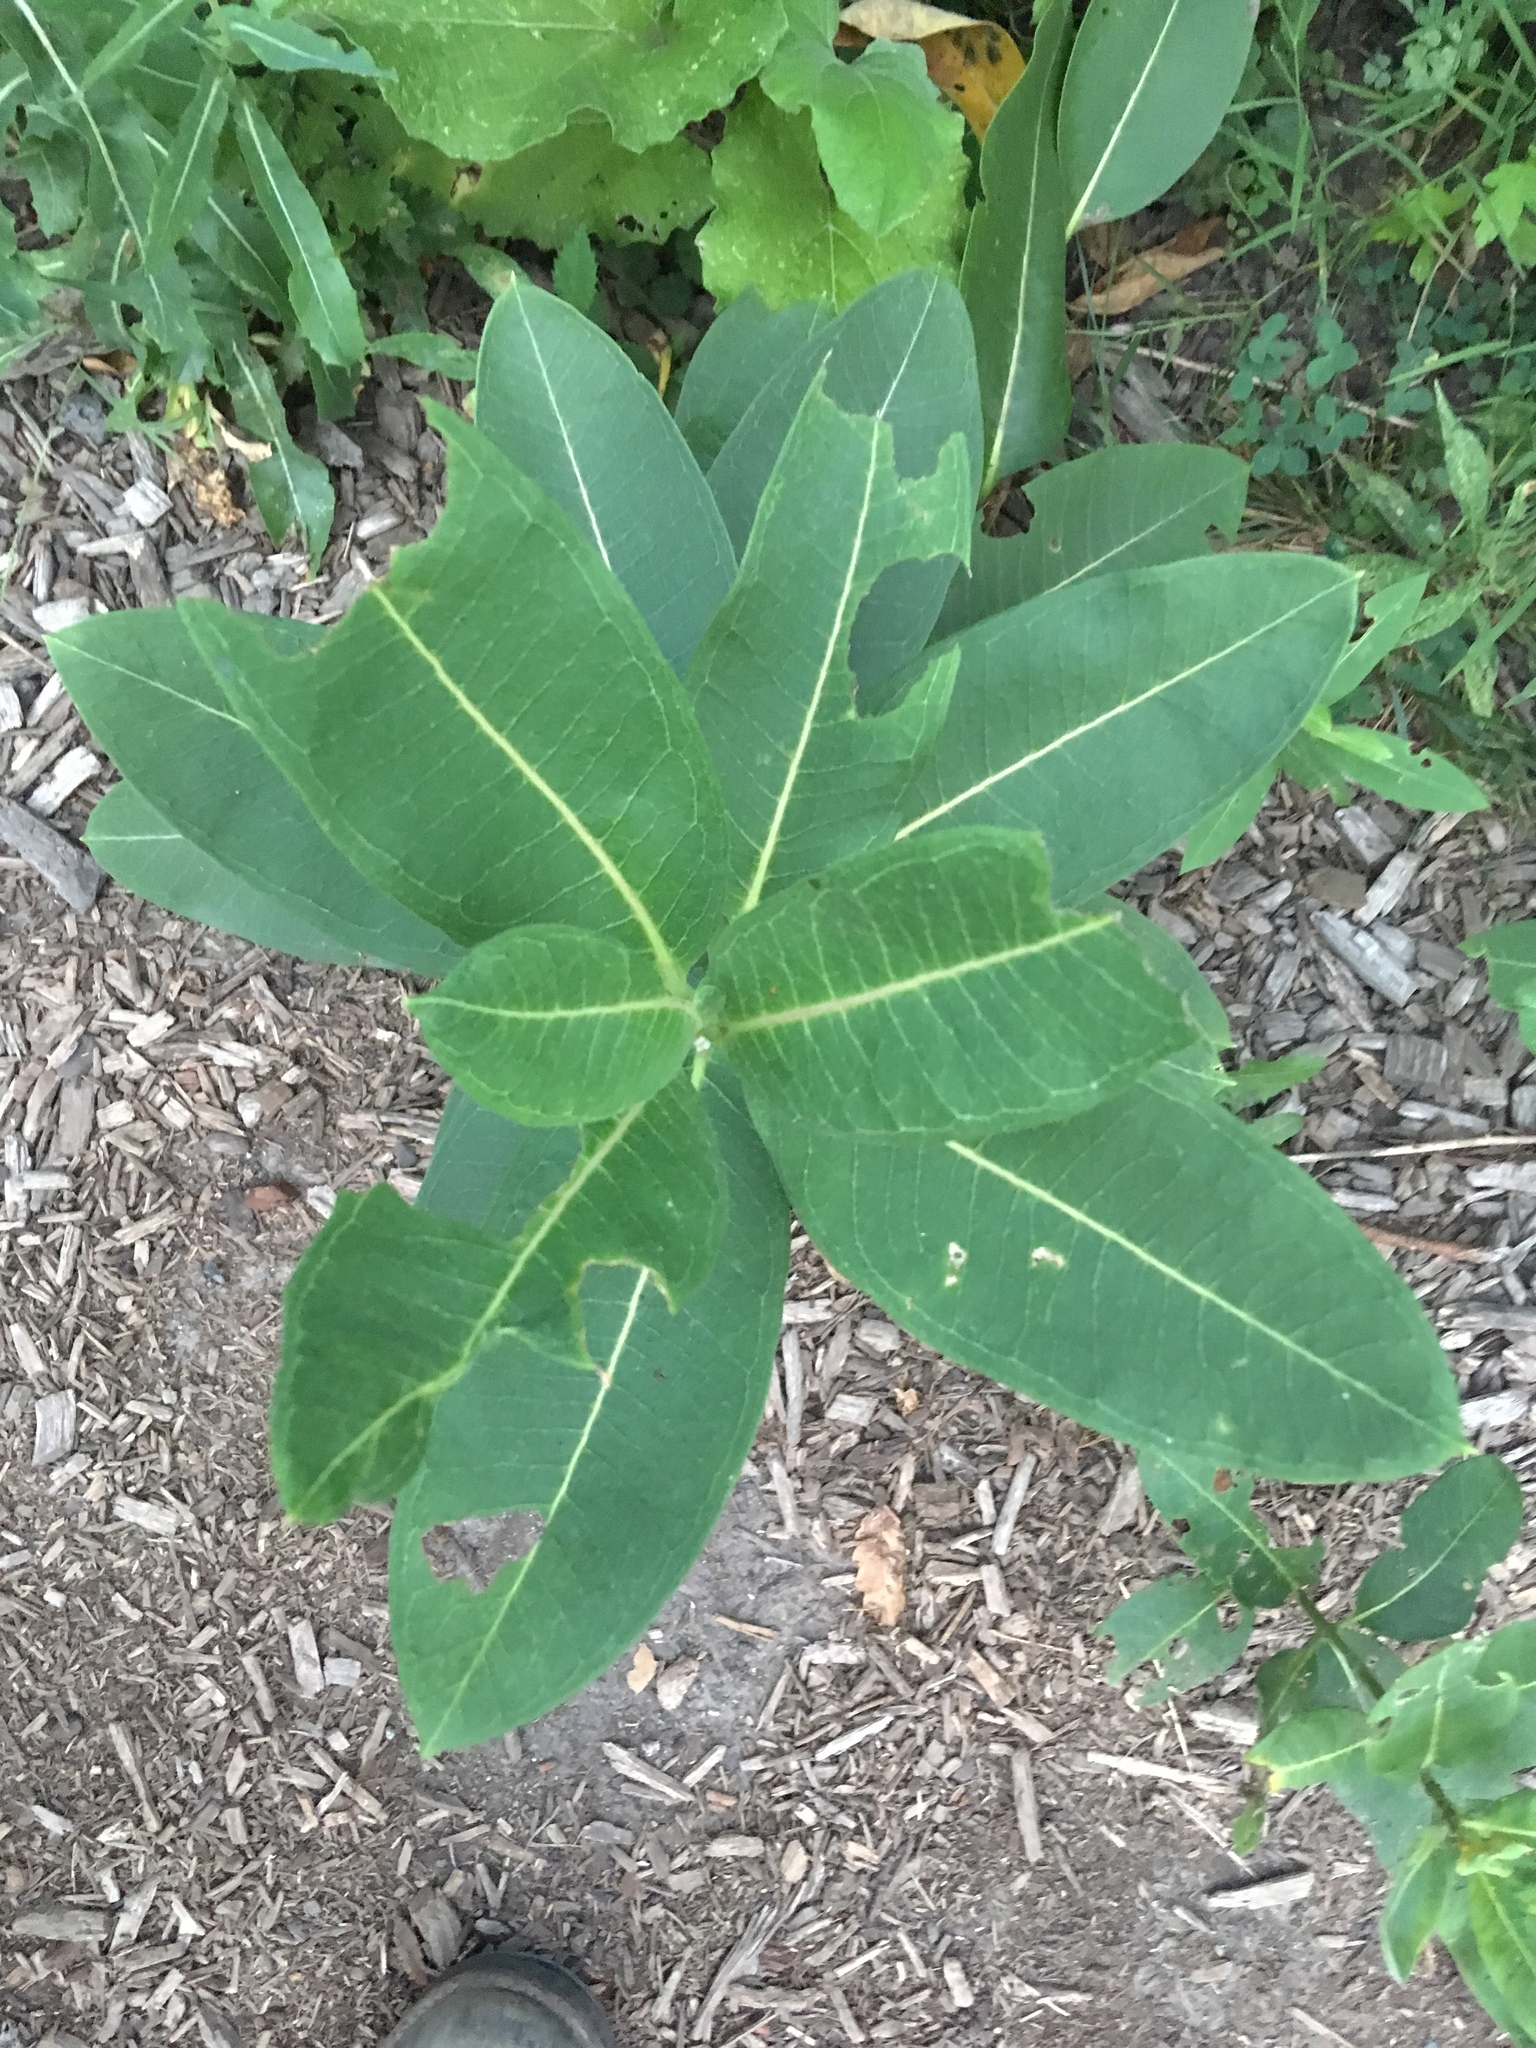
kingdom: Plantae
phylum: Tracheophyta
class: Magnoliopsida
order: Gentianales
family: Apocynaceae
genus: Asclepias
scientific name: Asclepias syriaca
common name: Common milkweed
